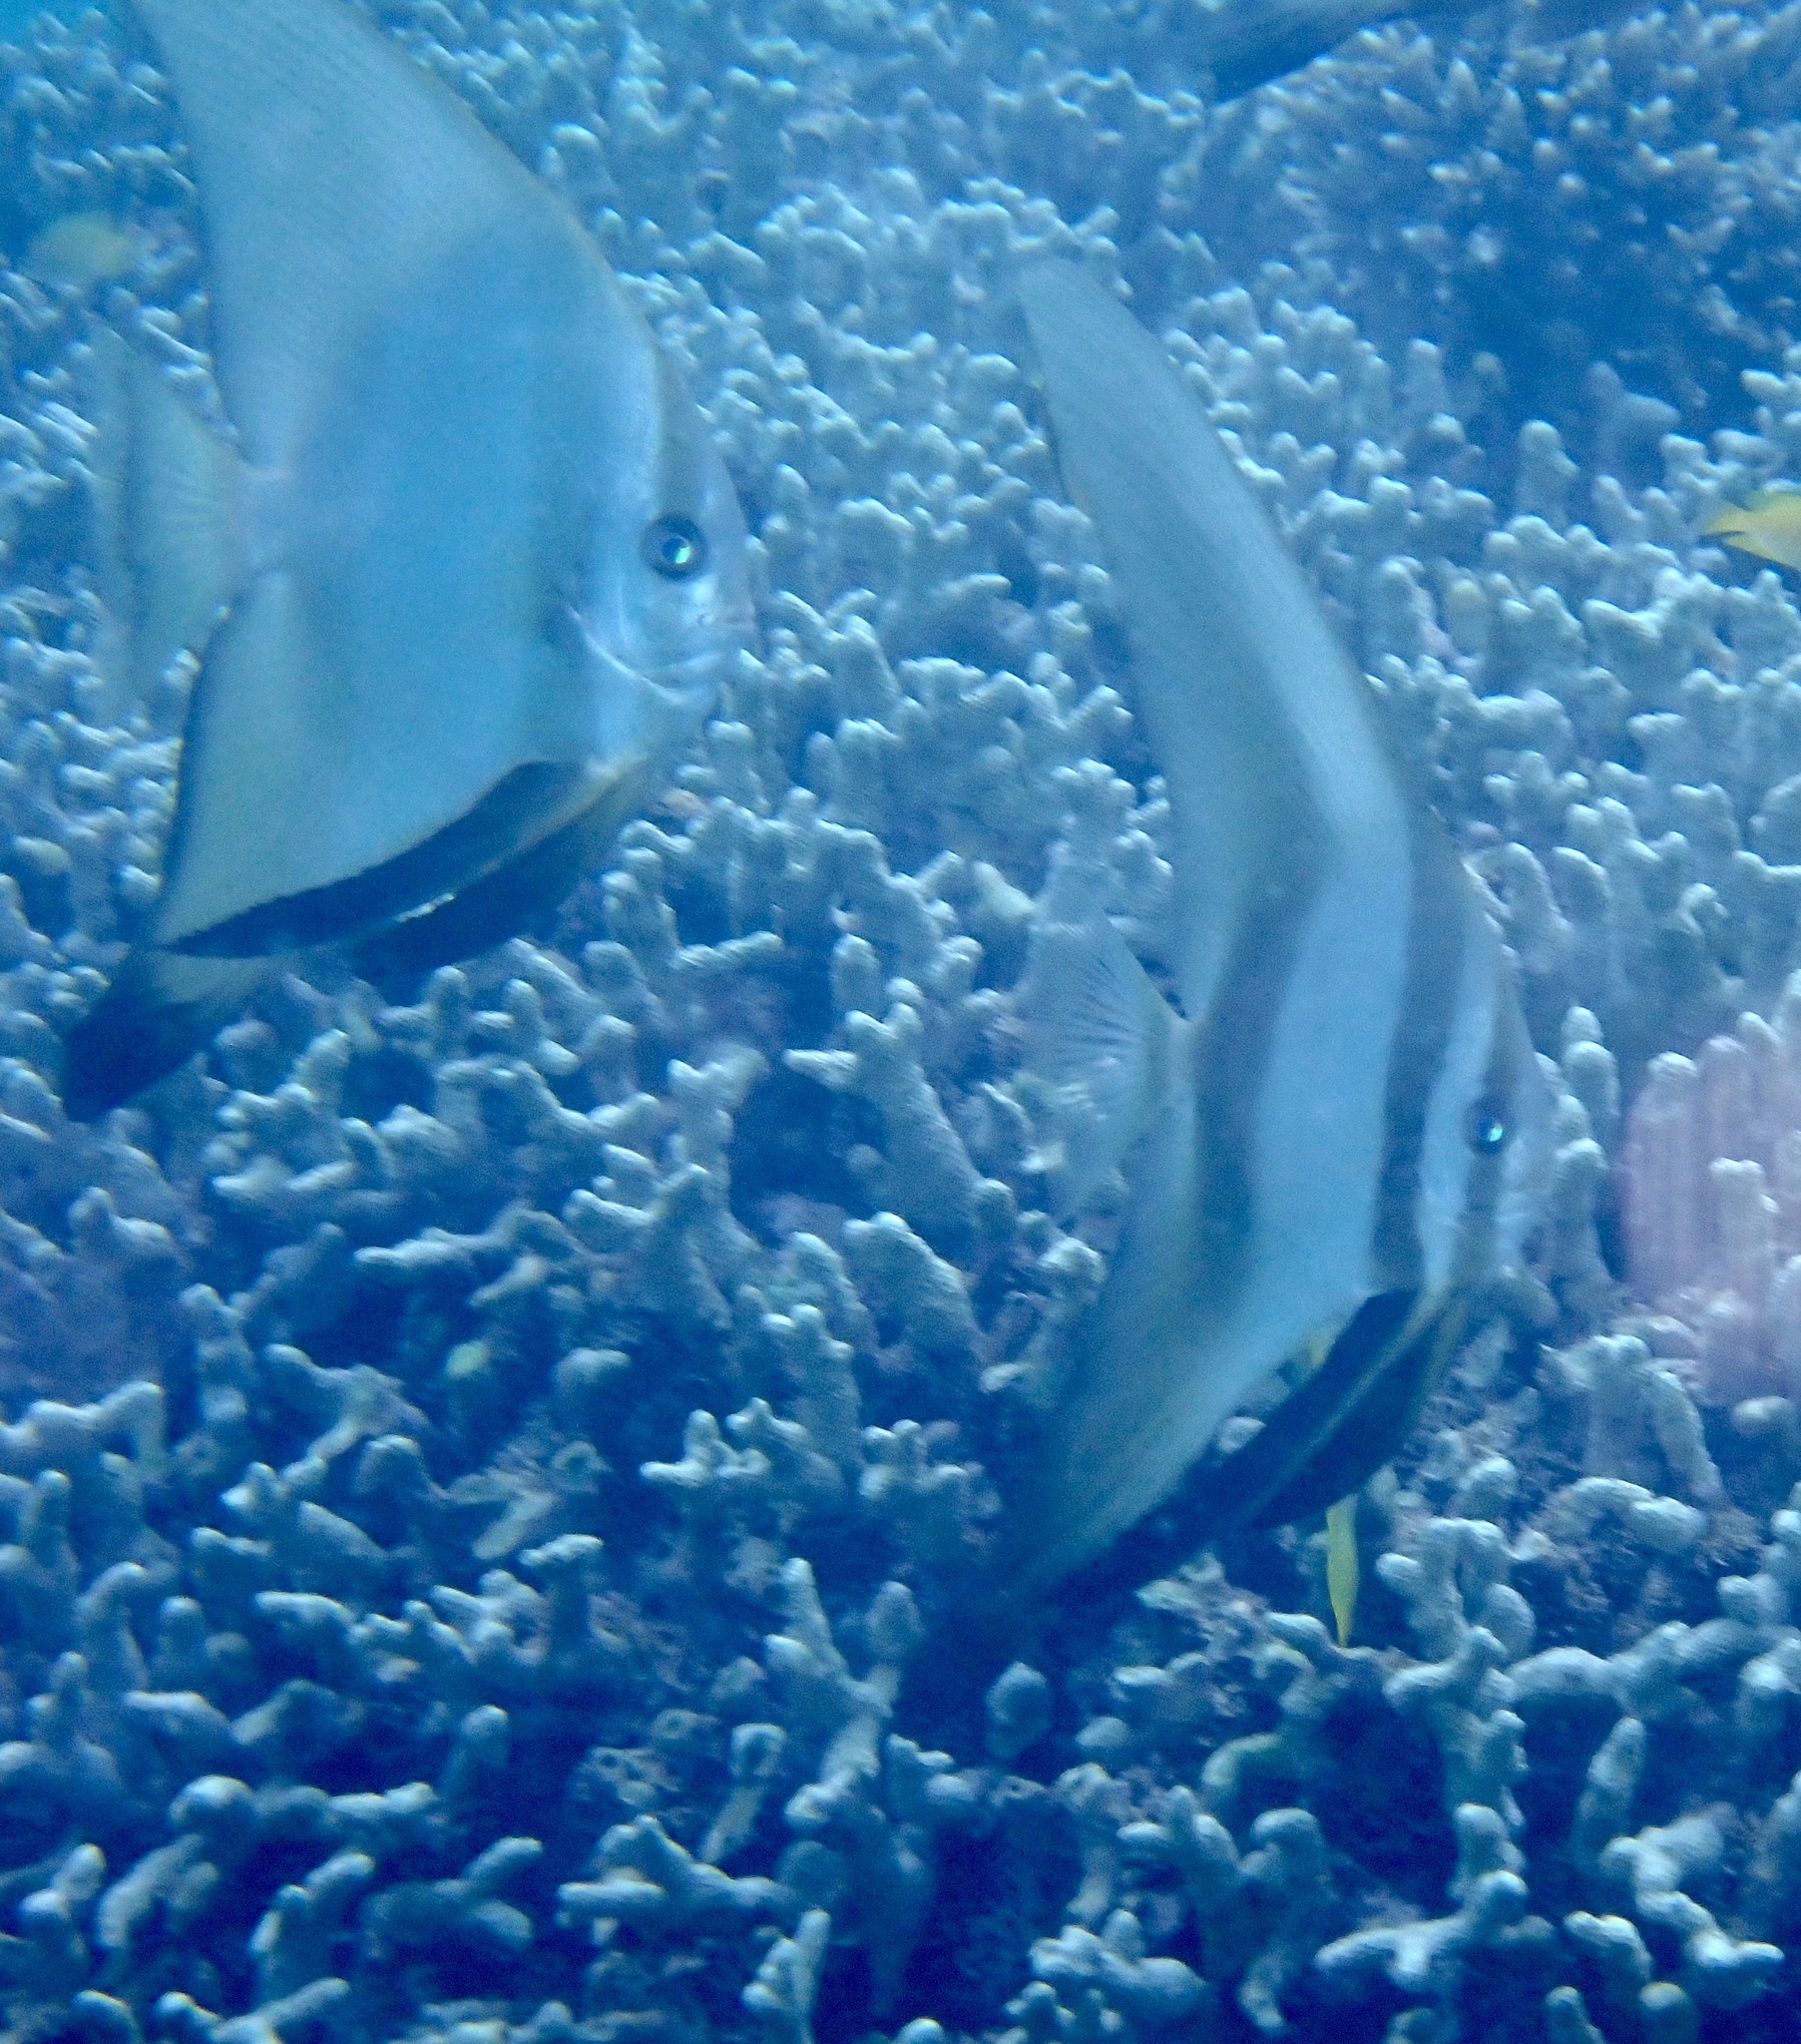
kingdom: Animalia
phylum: Chordata
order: Perciformes
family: Ephippidae
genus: Platax
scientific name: Platax teira
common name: Longfin baitfish
